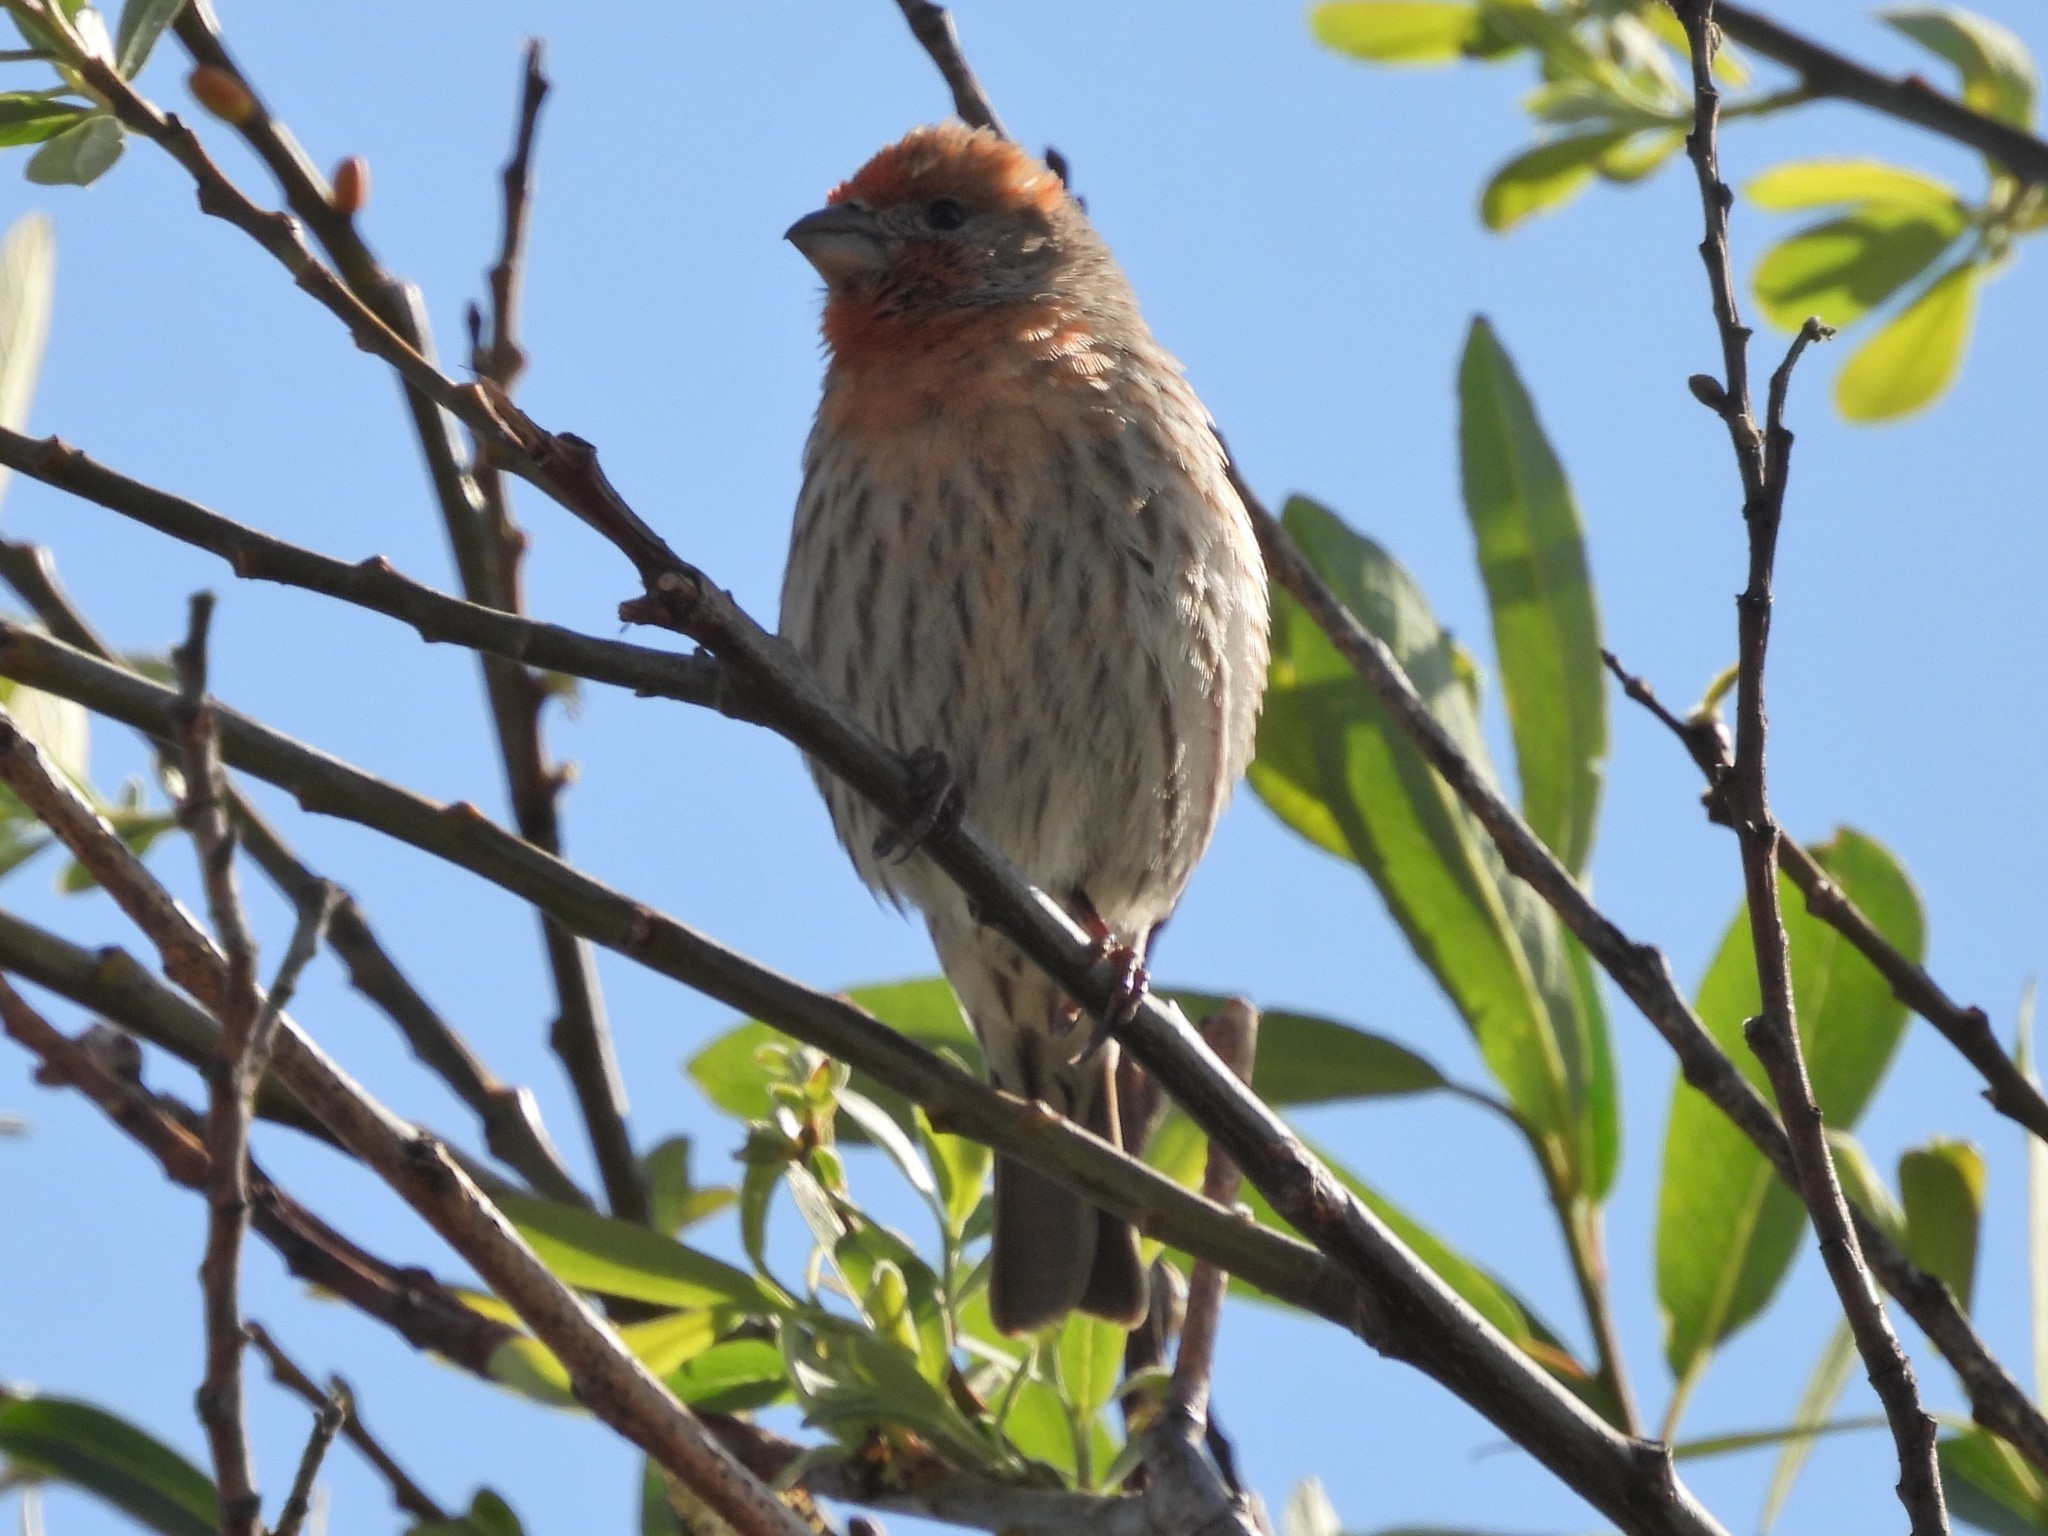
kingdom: Animalia
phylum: Chordata
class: Aves
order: Passeriformes
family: Fringillidae
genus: Haemorhous
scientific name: Haemorhous mexicanus
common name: House finch
